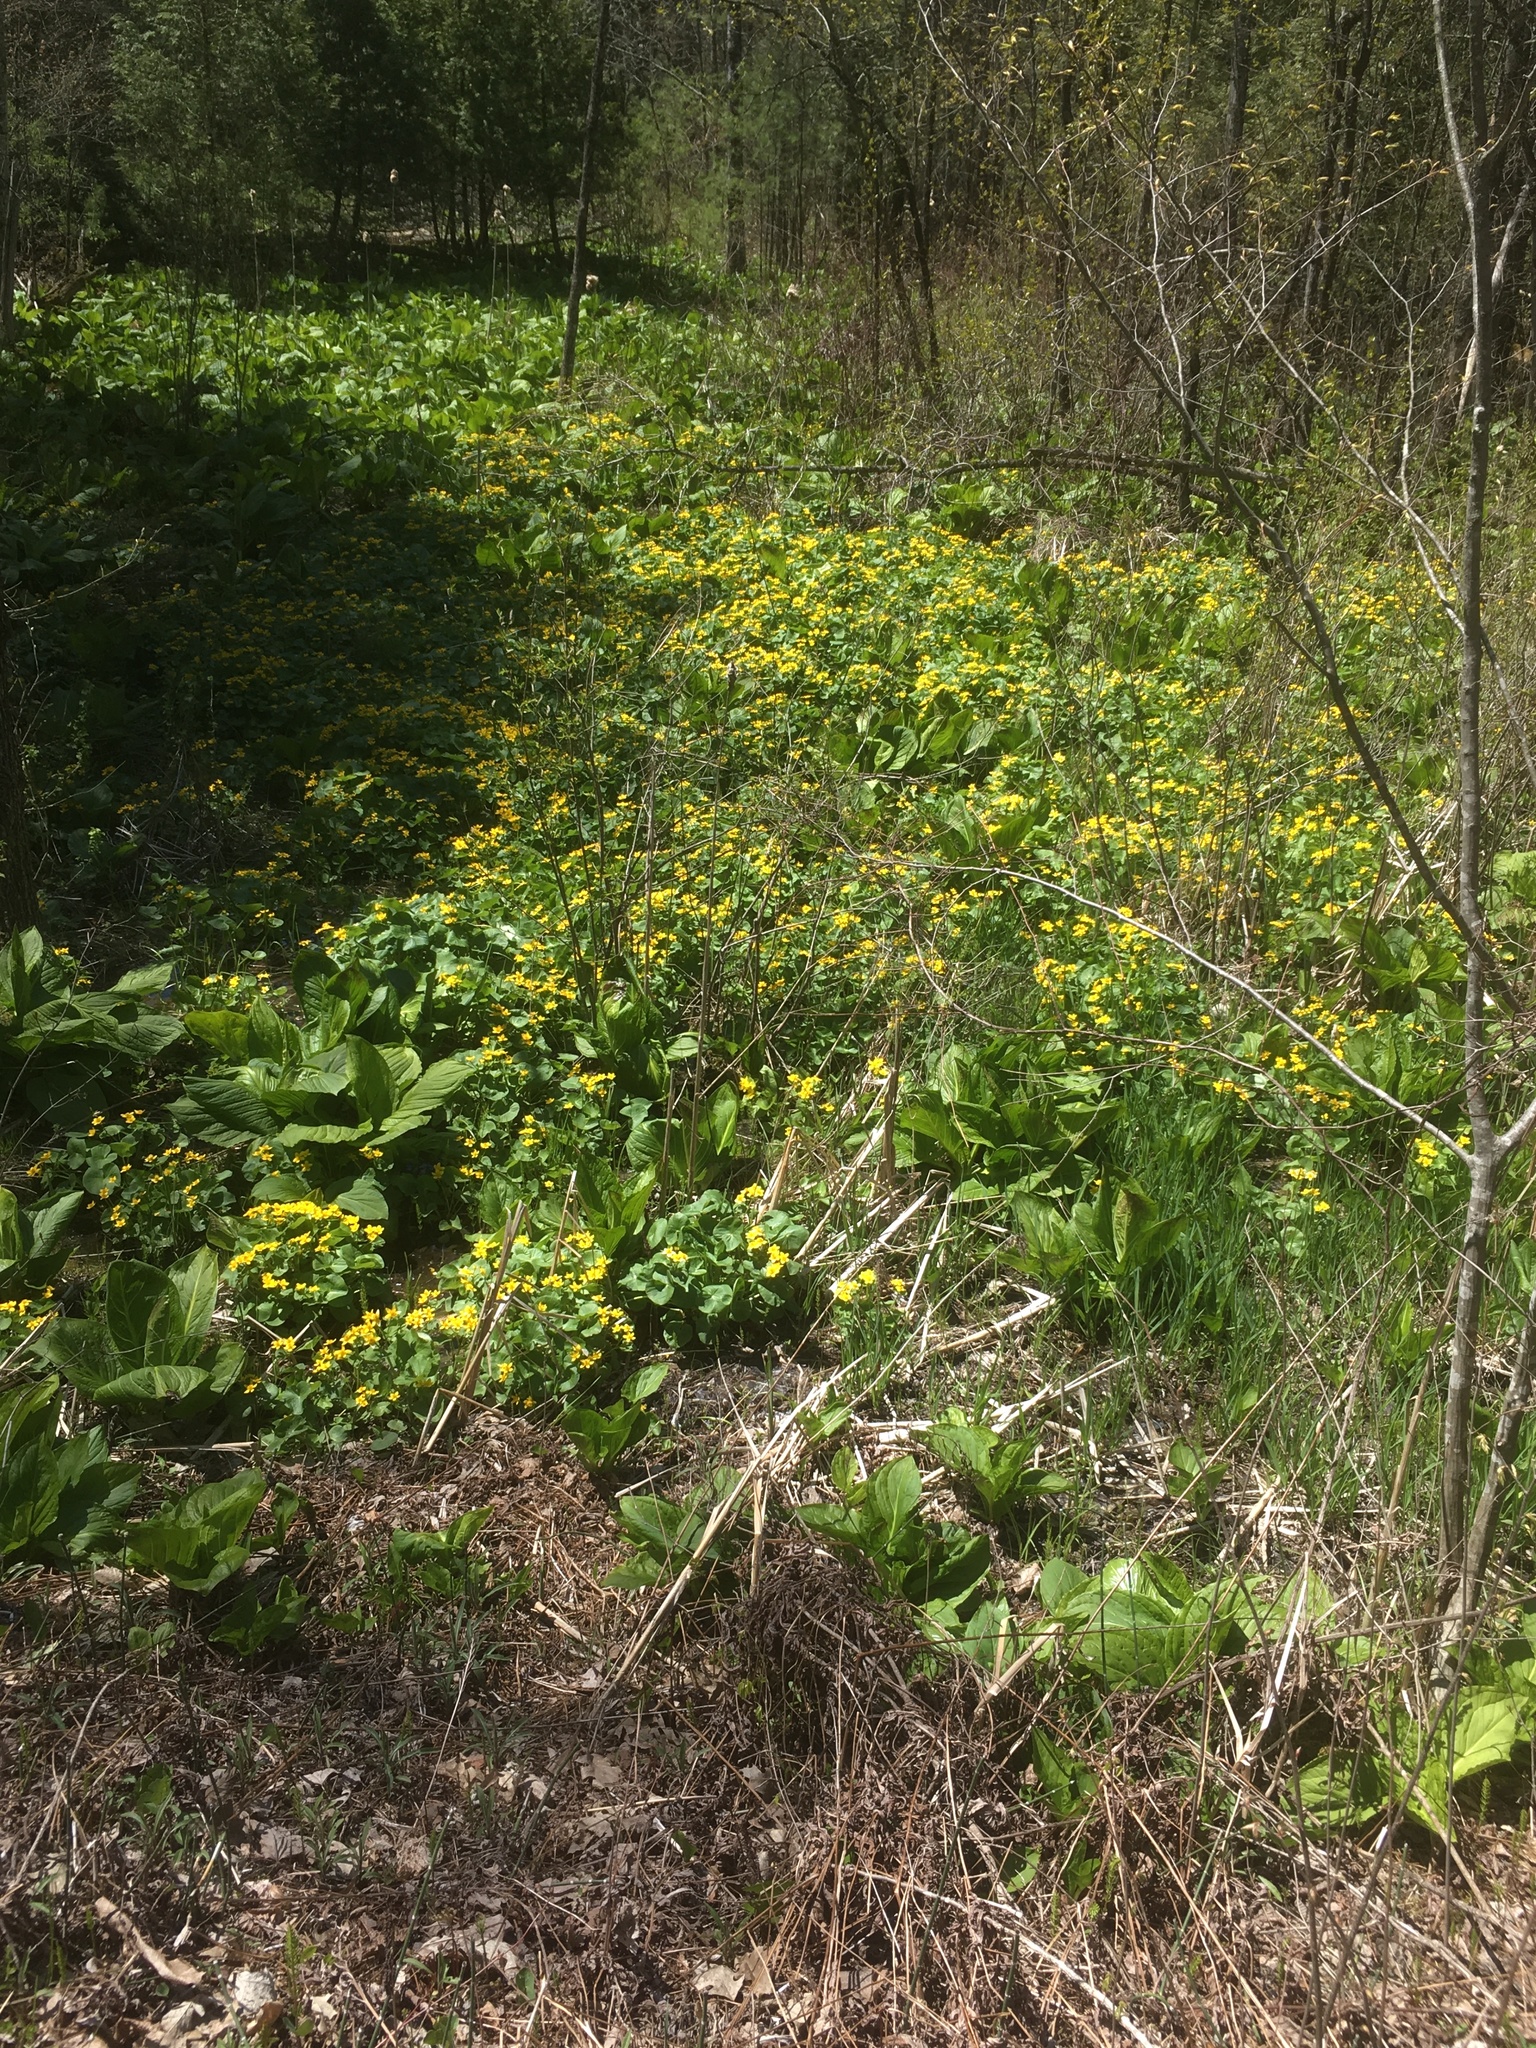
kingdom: Plantae
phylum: Tracheophyta
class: Magnoliopsida
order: Ranunculales
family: Ranunculaceae
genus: Caltha
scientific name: Caltha palustris
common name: Marsh marigold
